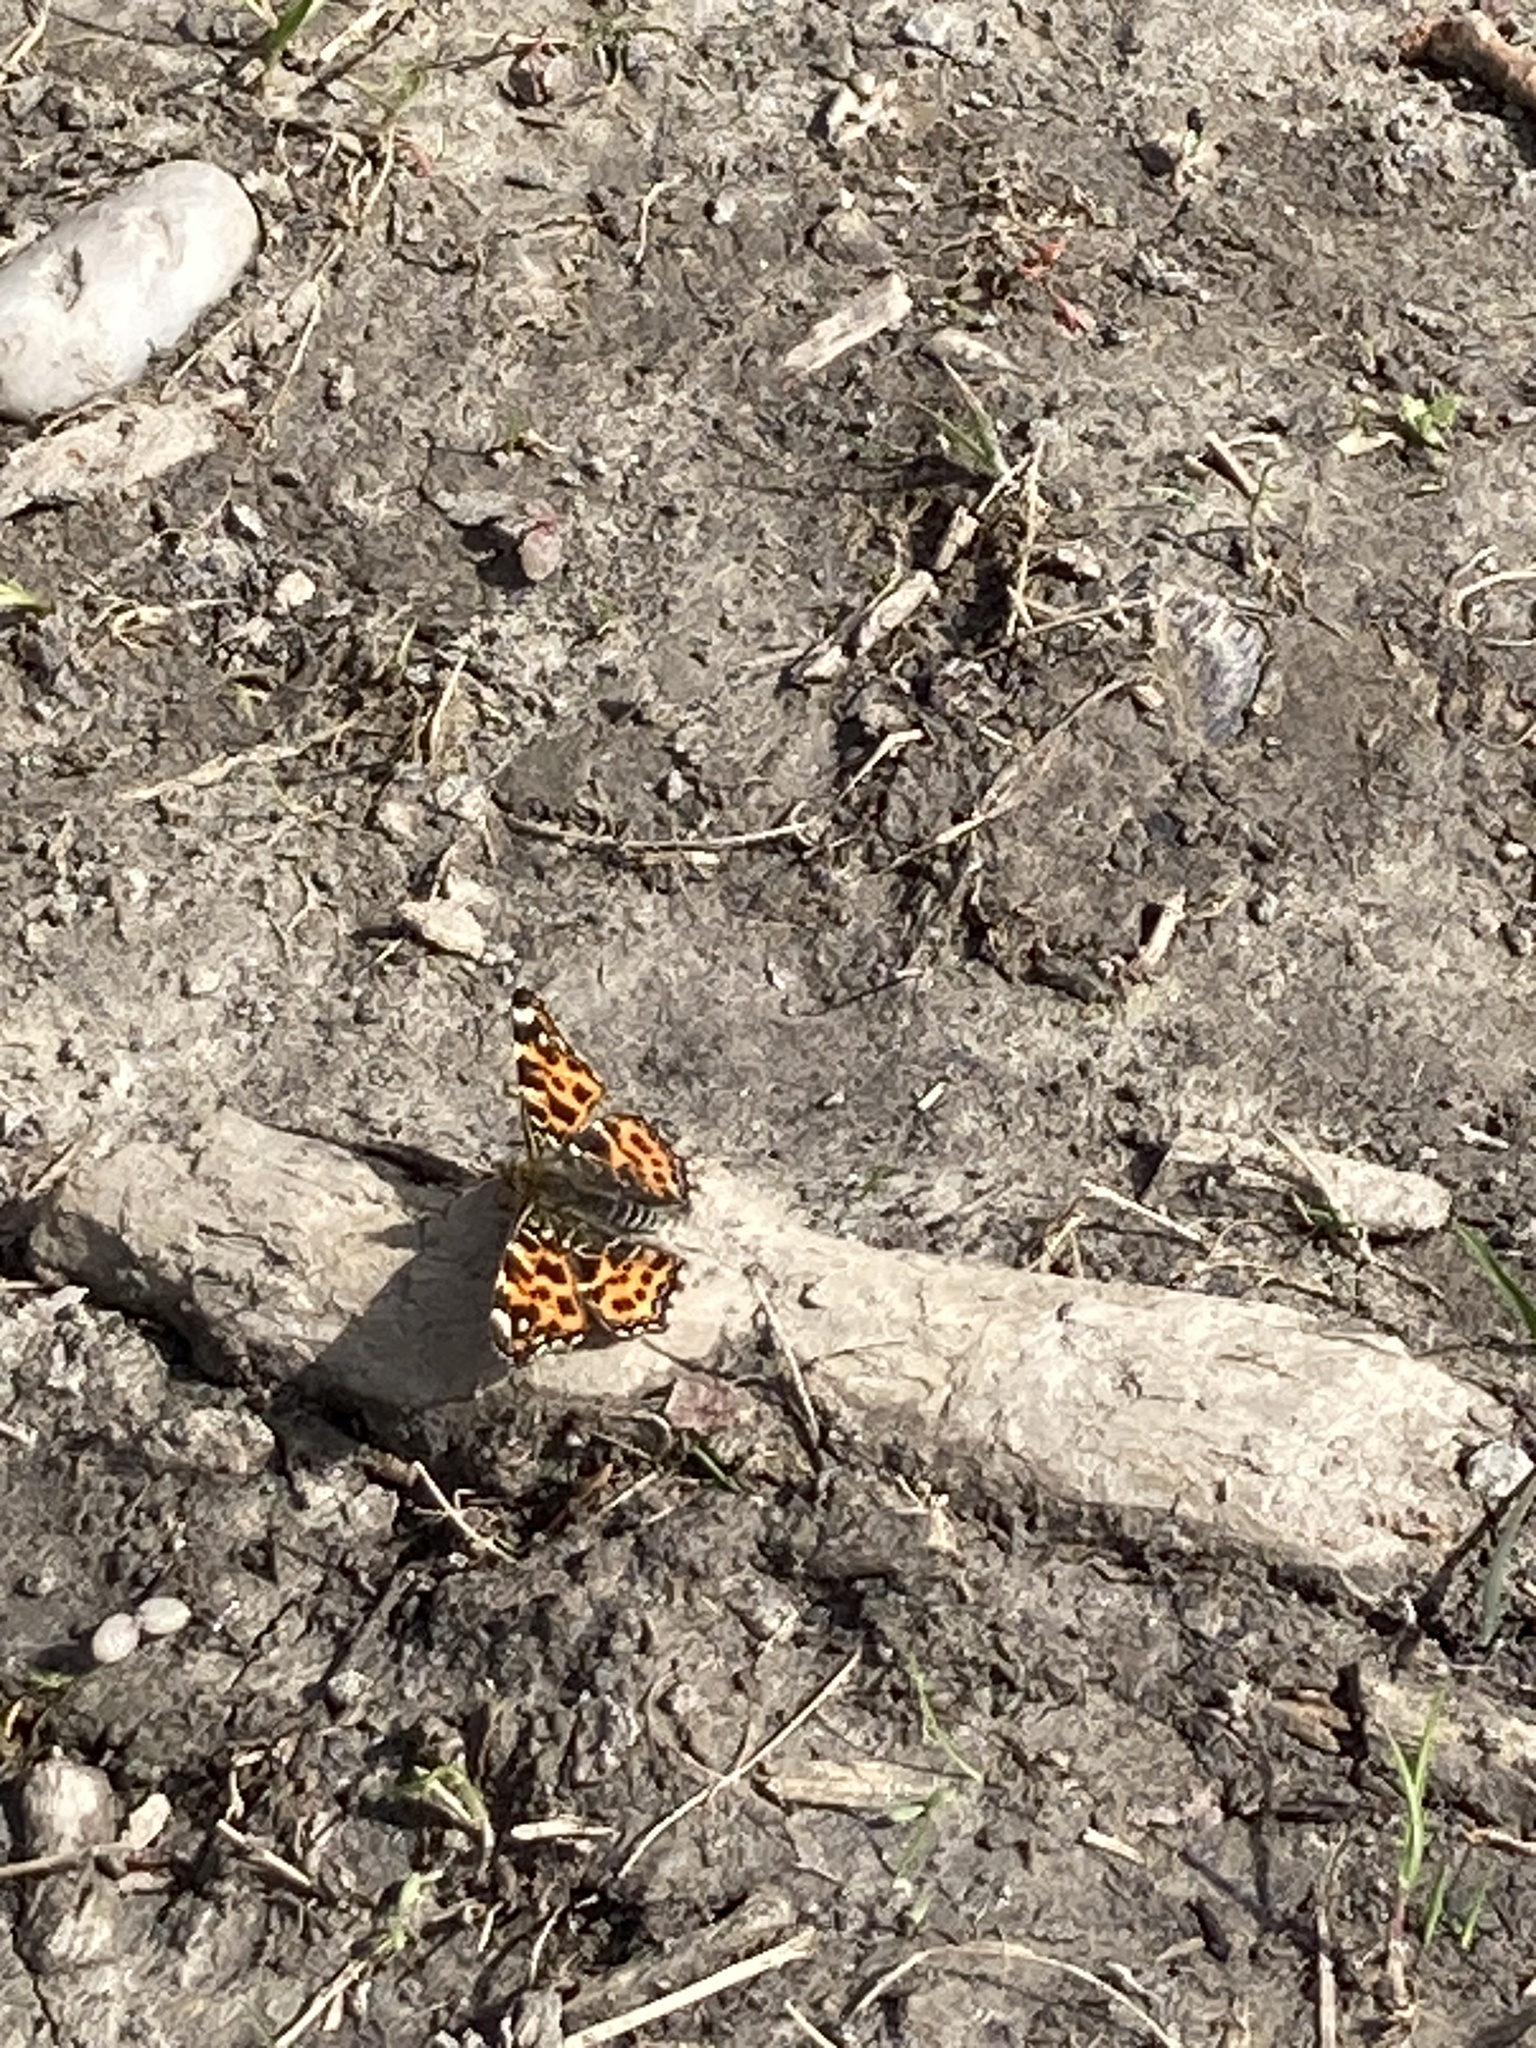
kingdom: Animalia
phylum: Arthropoda
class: Insecta
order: Lepidoptera
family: Nymphalidae
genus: Araschnia
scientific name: Araschnia levana
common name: Map butterfly
